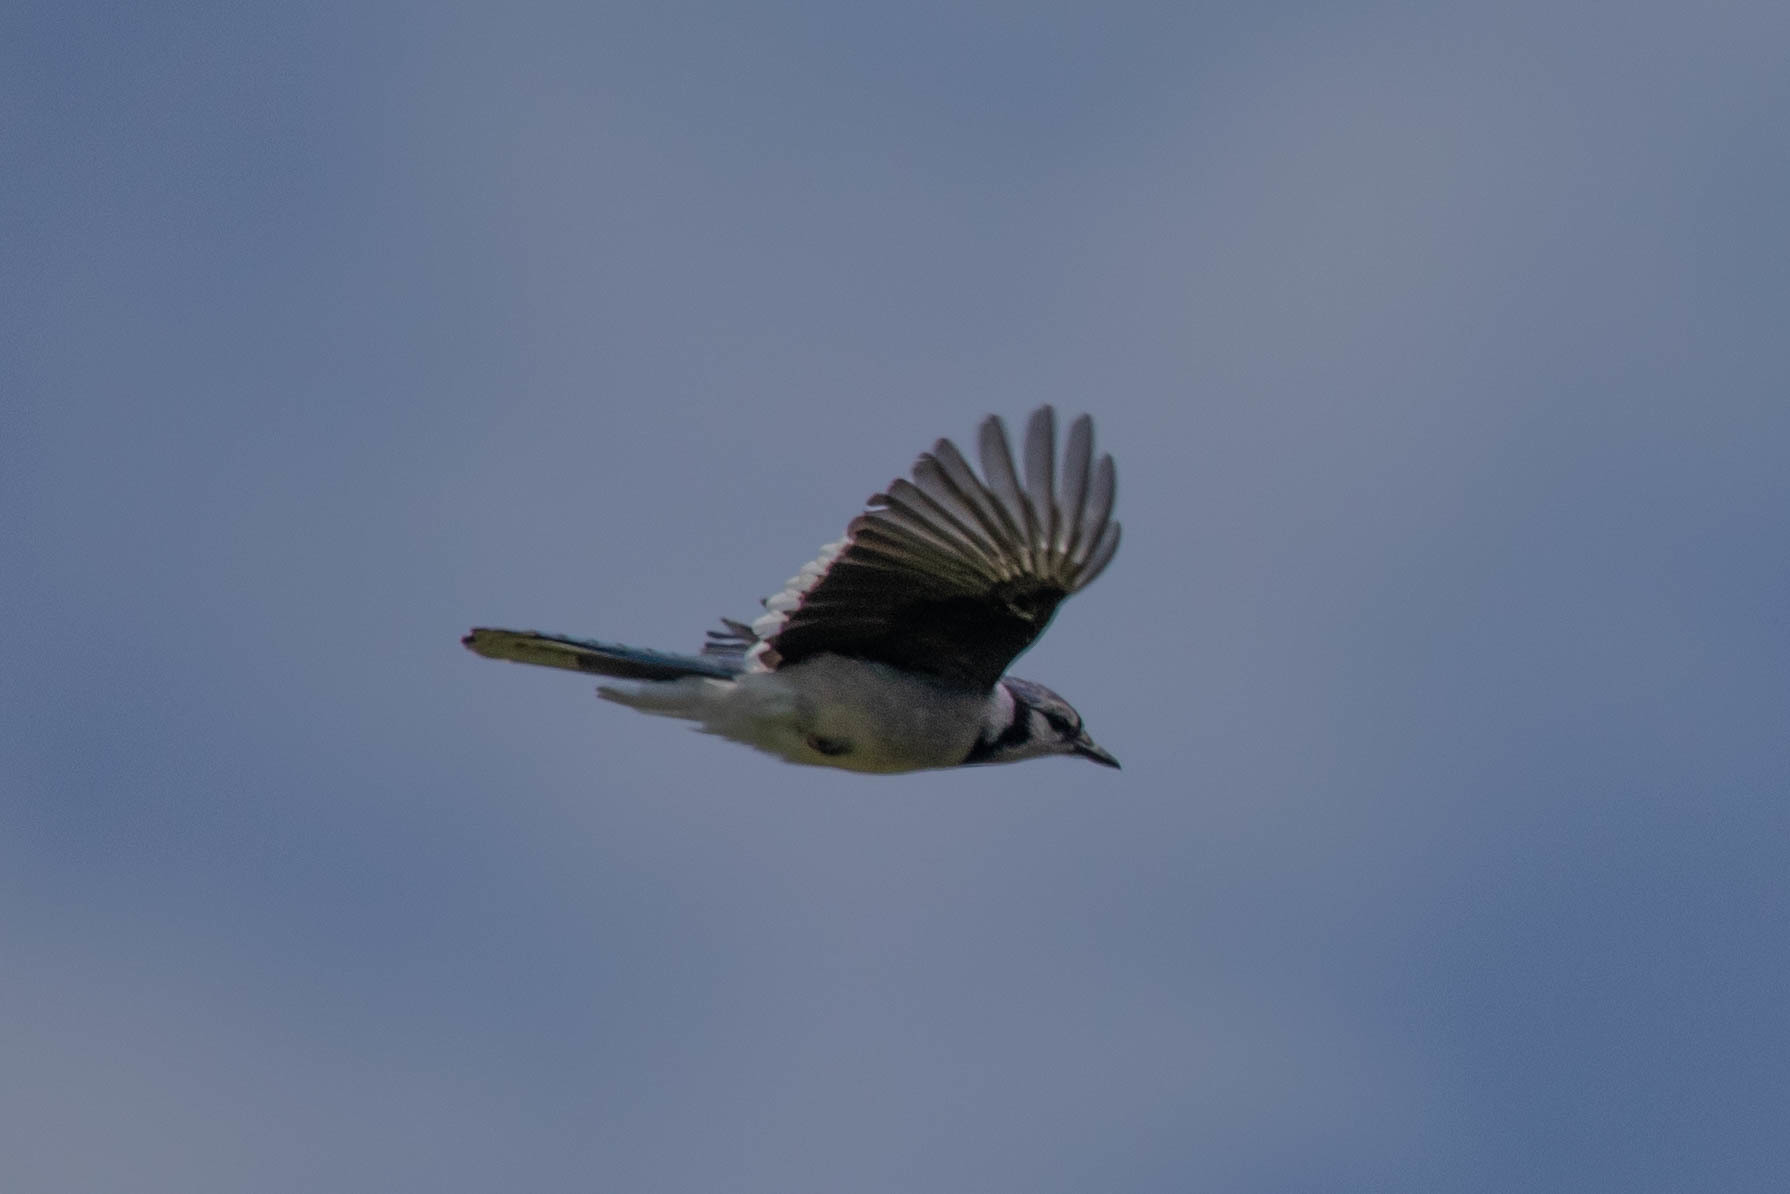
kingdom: Animalia
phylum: Chordata
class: Aves
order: Passeriformes
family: Corvidae
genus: Cyanocitta
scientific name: Cyanocitta cristata
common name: Blue jay
